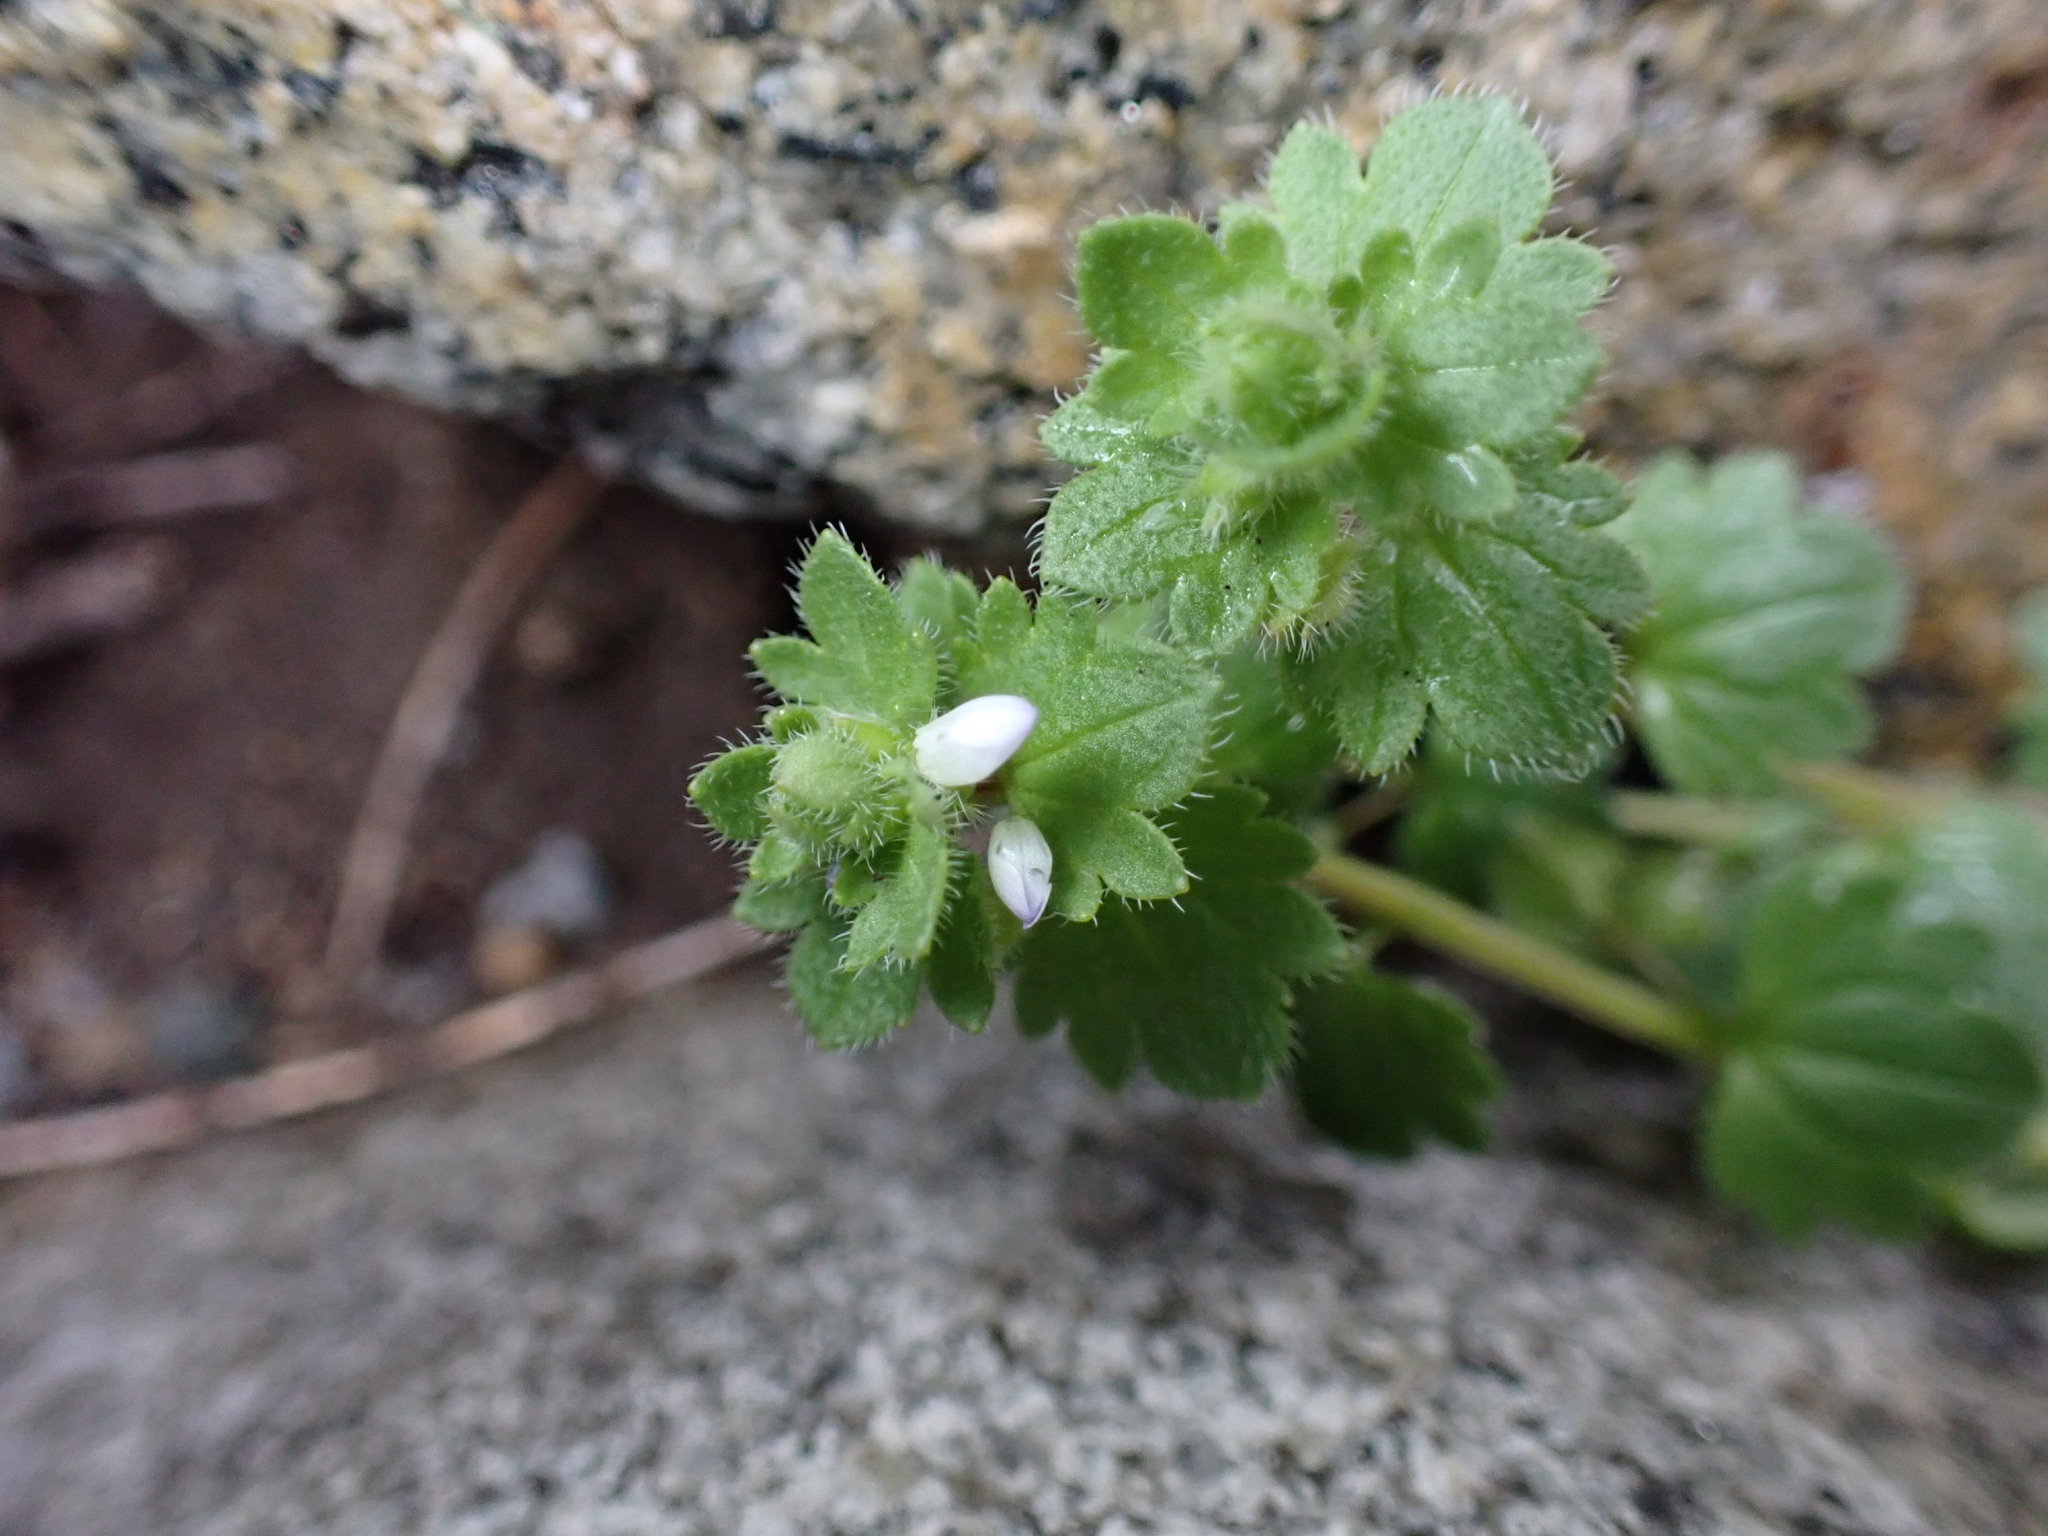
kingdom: Plantae
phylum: Tracheophyta
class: Magnoliopsida
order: Lamiales
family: Plantaginaceae
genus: Veronica
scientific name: Veronica hederifolia
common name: Ivy-leaved speedwell
